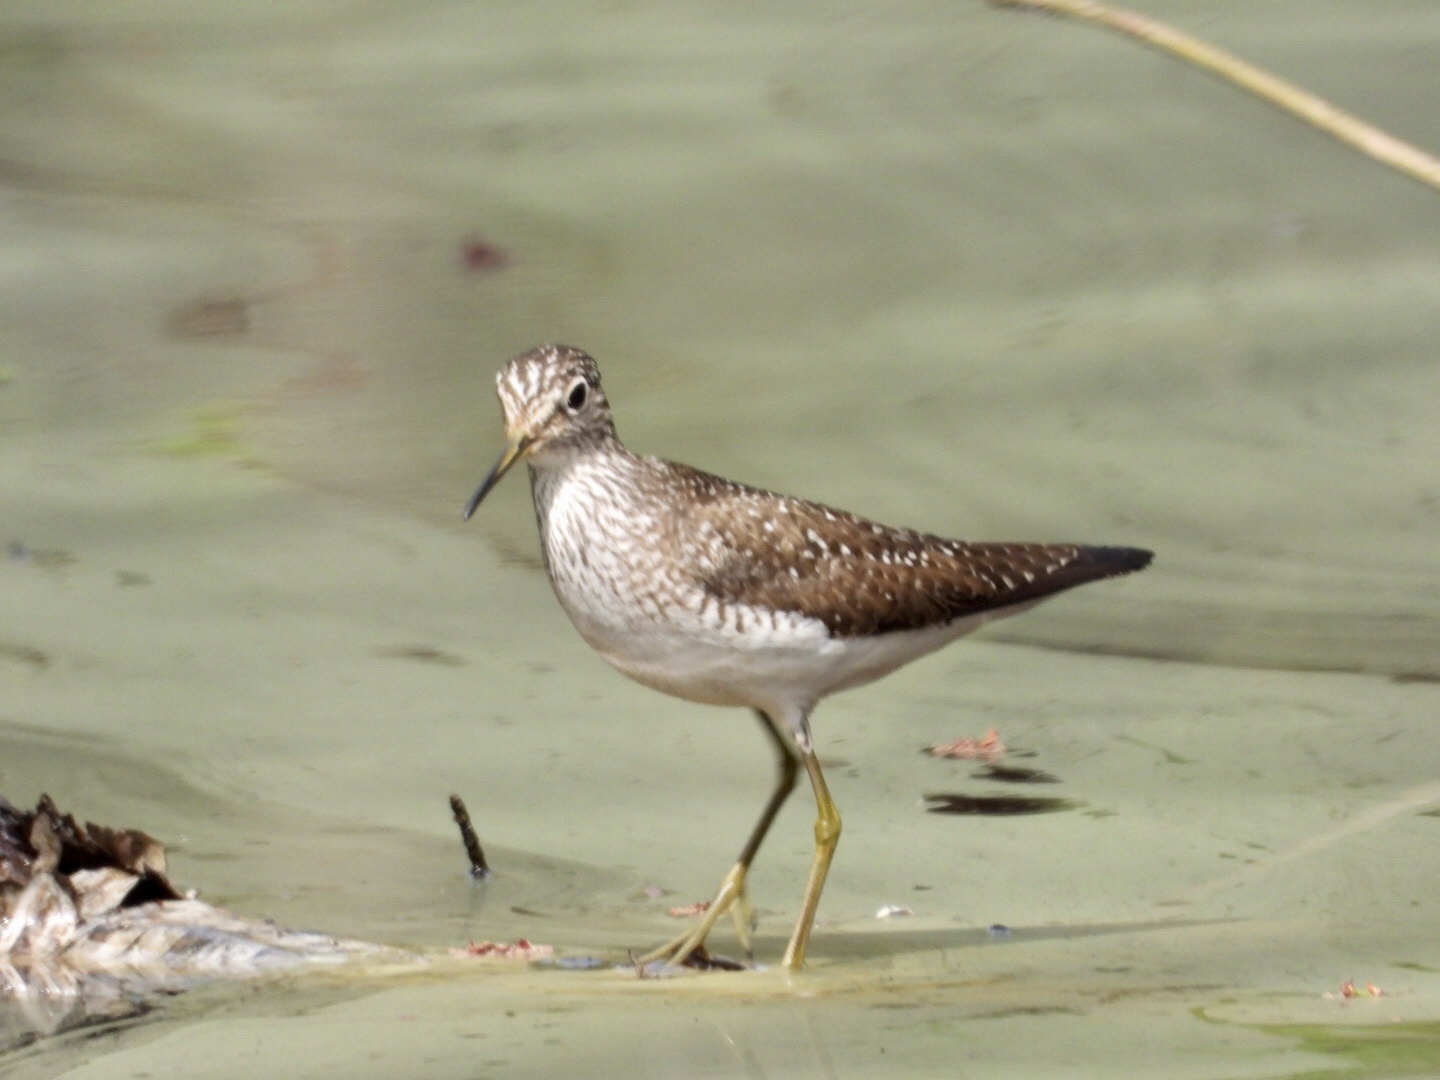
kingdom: Animalia
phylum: Chordata
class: Aves
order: Charadriiformes
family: Scolopacidae
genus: Tringa
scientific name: Tringa solitaria
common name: Solitary sandpiper
